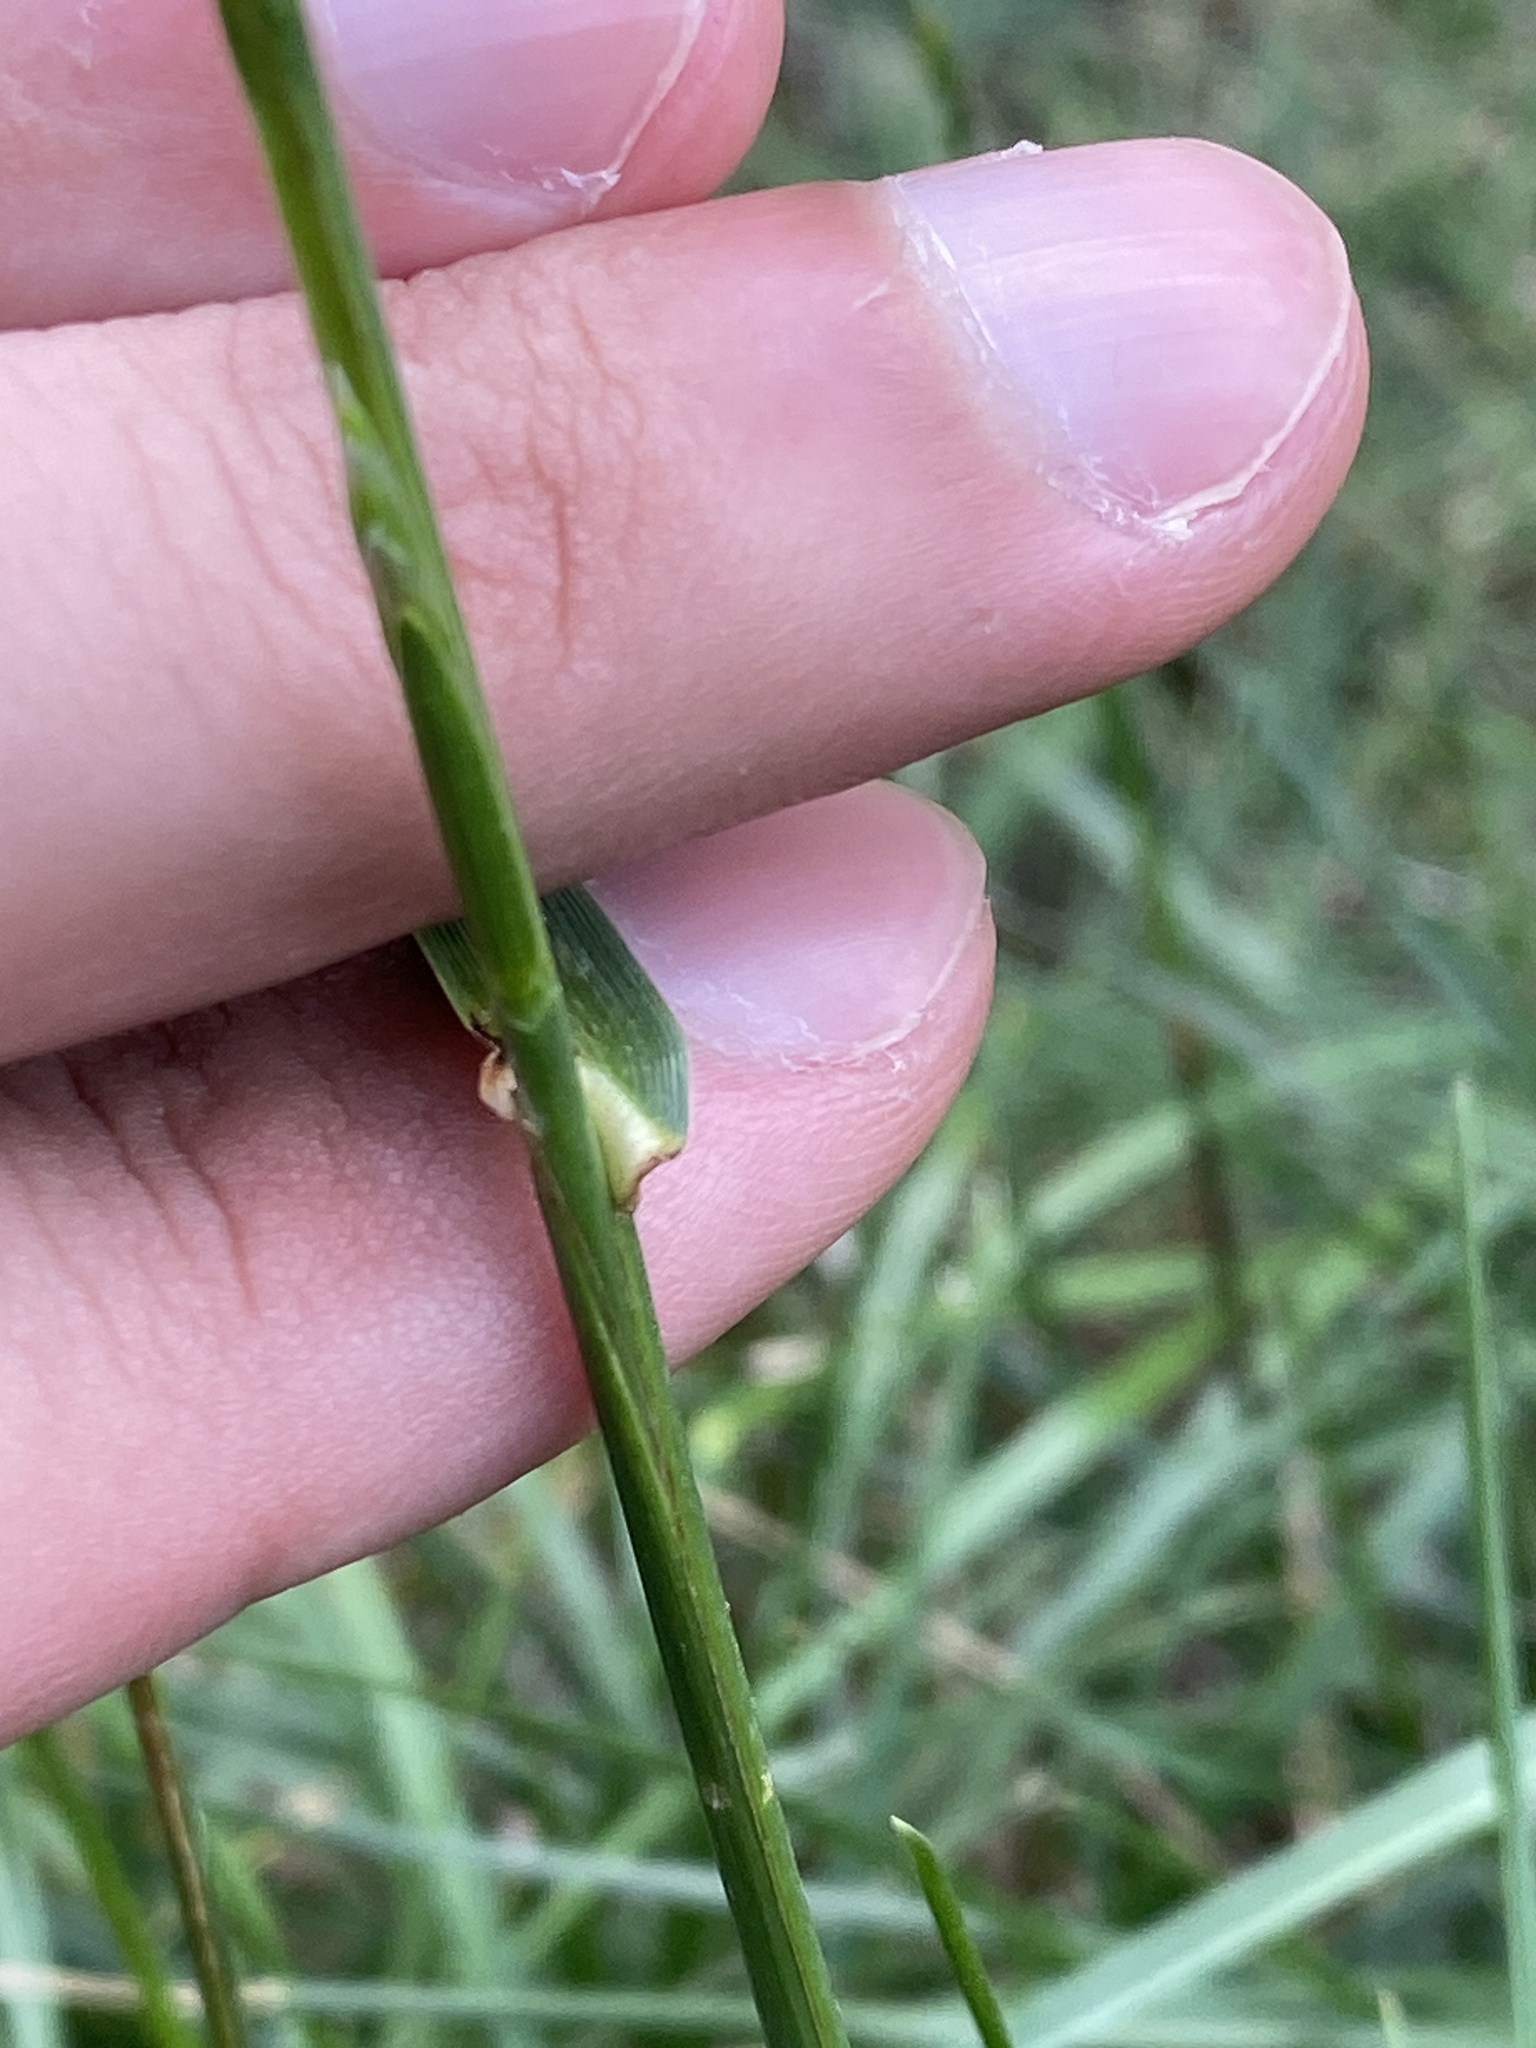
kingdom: Plantae
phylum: Tracheophyta
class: Liliopsida
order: Poales
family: Poaceae
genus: Lolium
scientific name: Lolium perenne
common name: Perennial ryegrass
